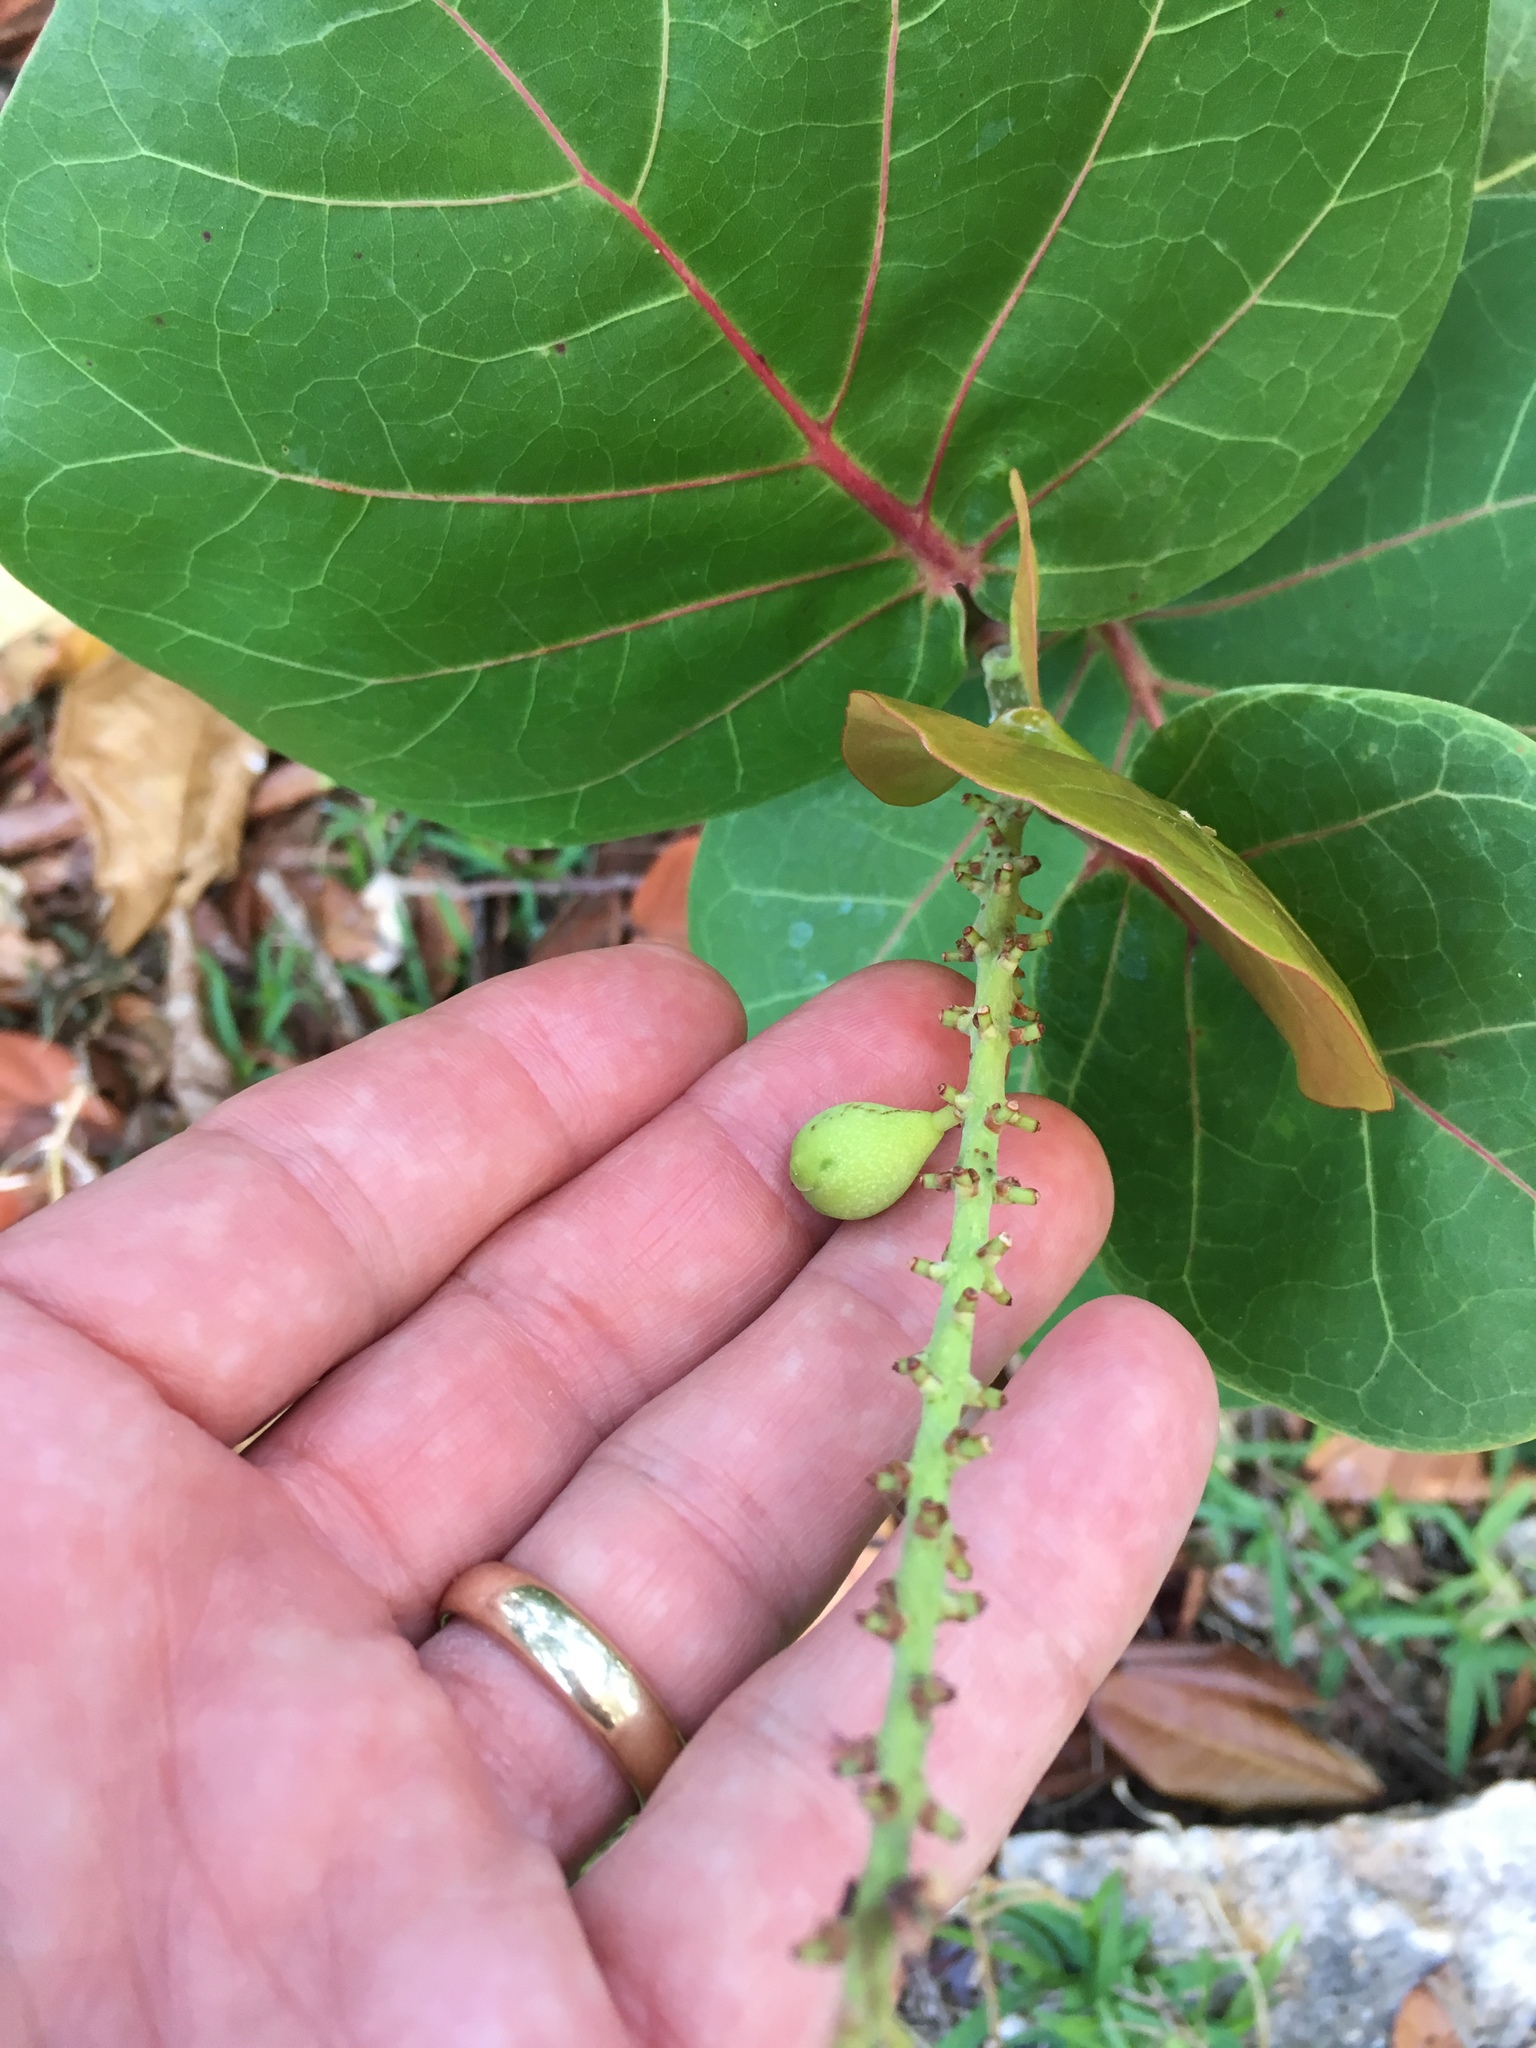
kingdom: Plantae
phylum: Tracheophyta
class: Magnoliopsida
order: Caryophyllales
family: Polygonaceae
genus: Coccoloba
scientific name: Coccoloba uvifera
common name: Seagrape
